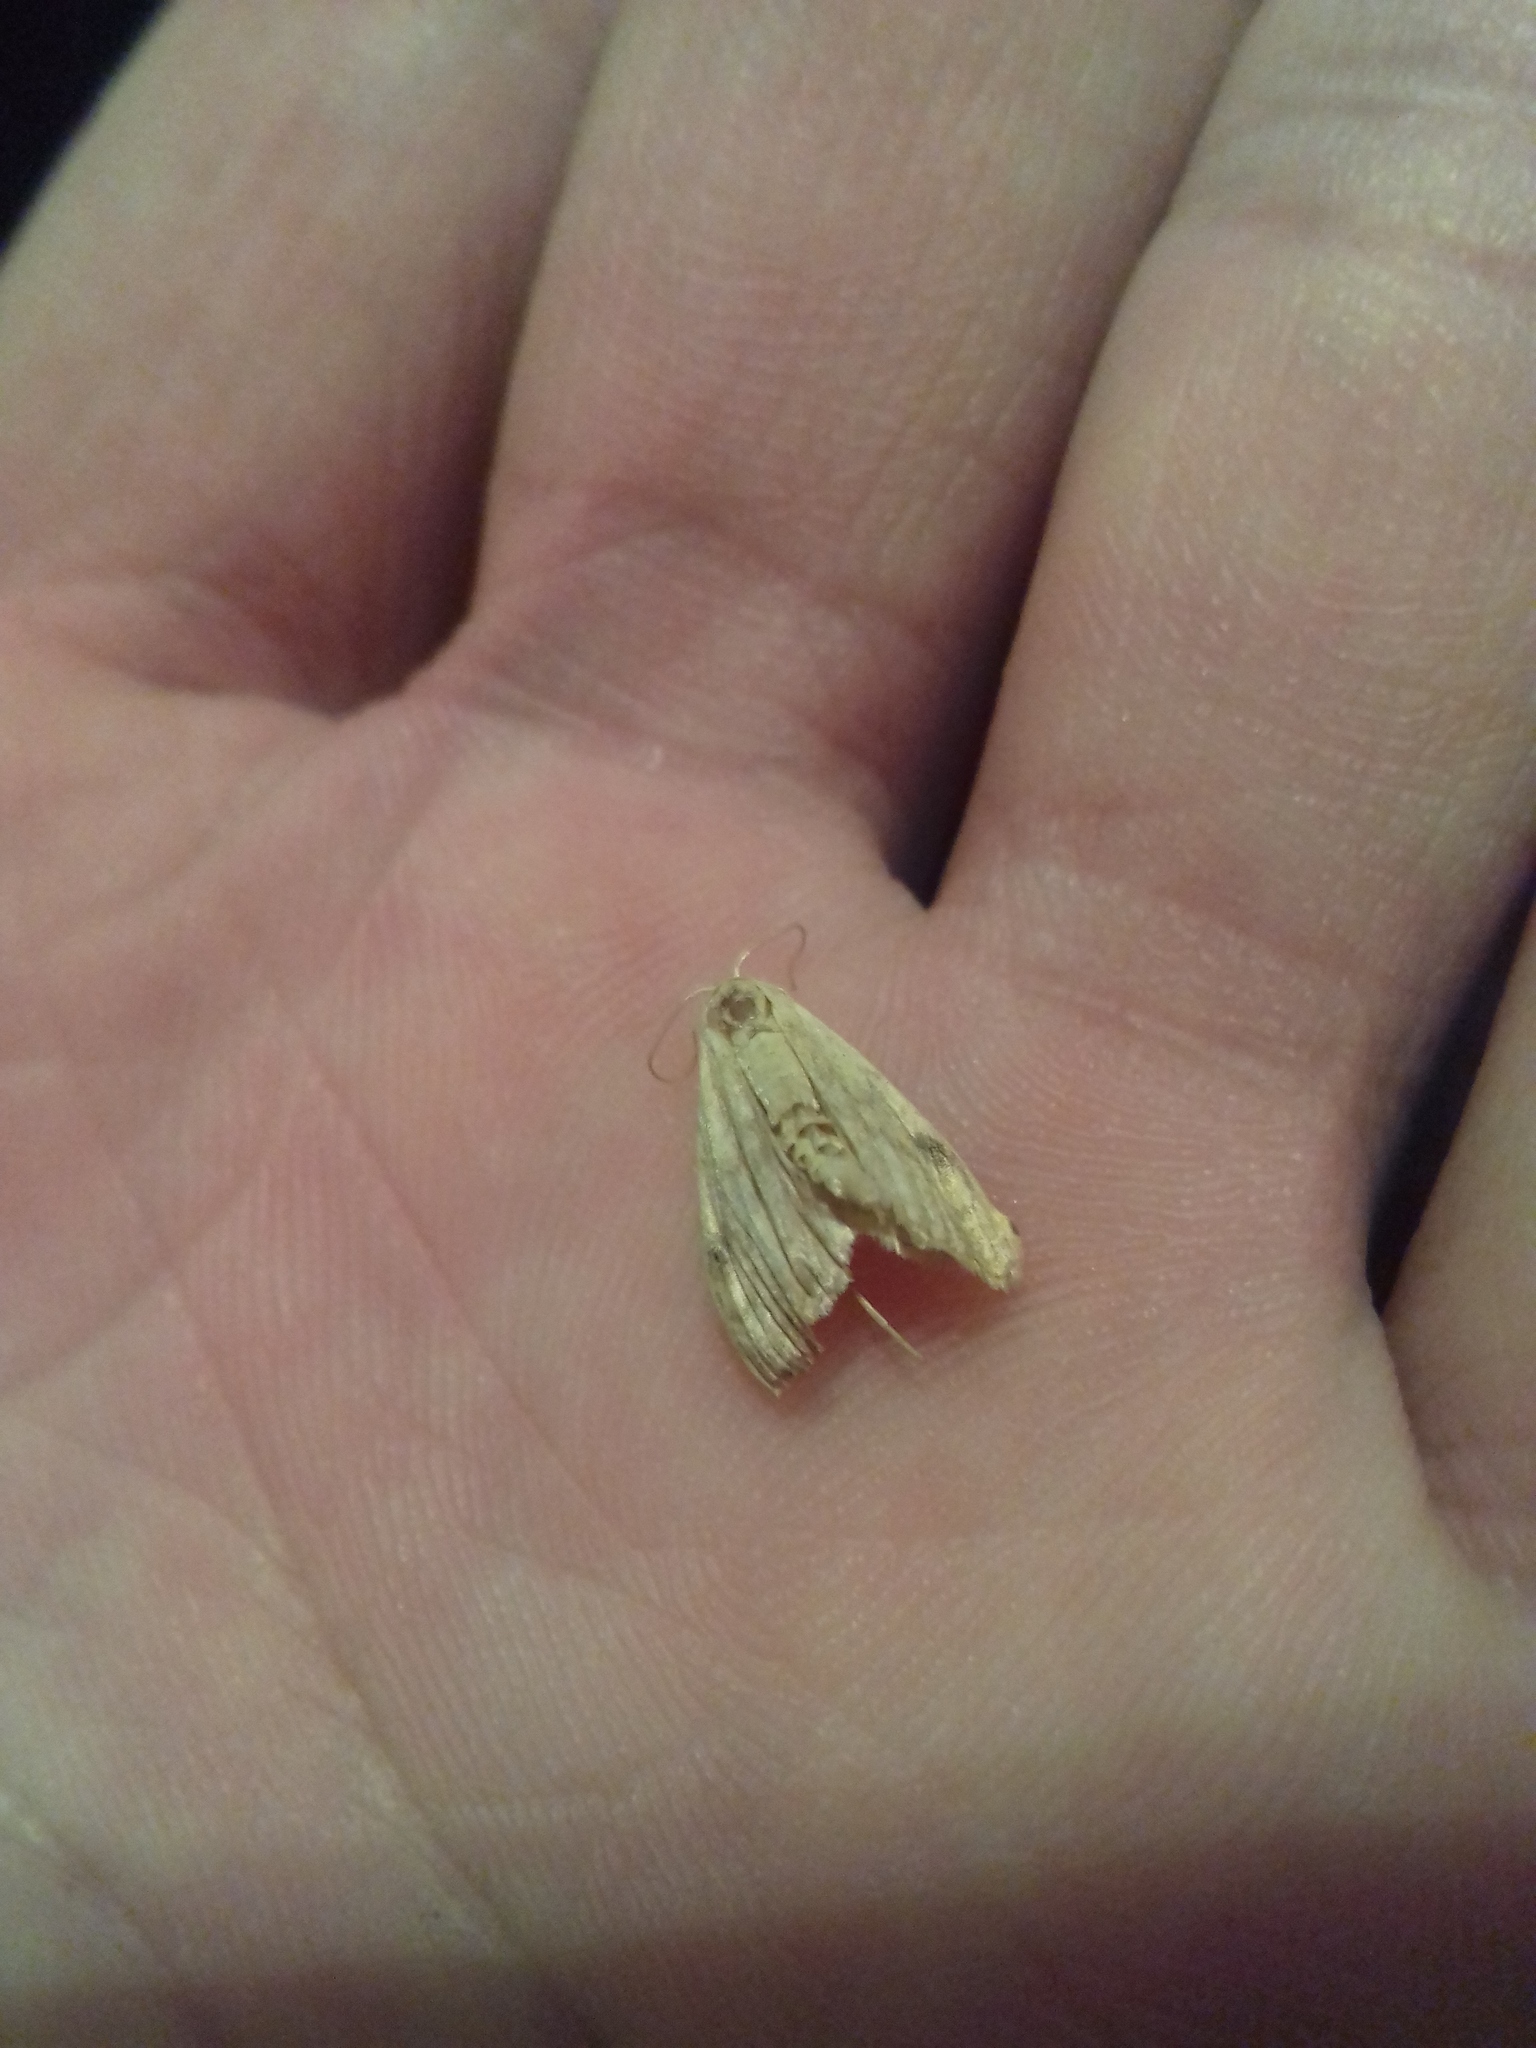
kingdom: Animalia
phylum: Arthropoda
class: Insecta
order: Lepidoptera
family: Erebidae
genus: Rivula
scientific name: Rivula sericealis
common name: Straw dot
